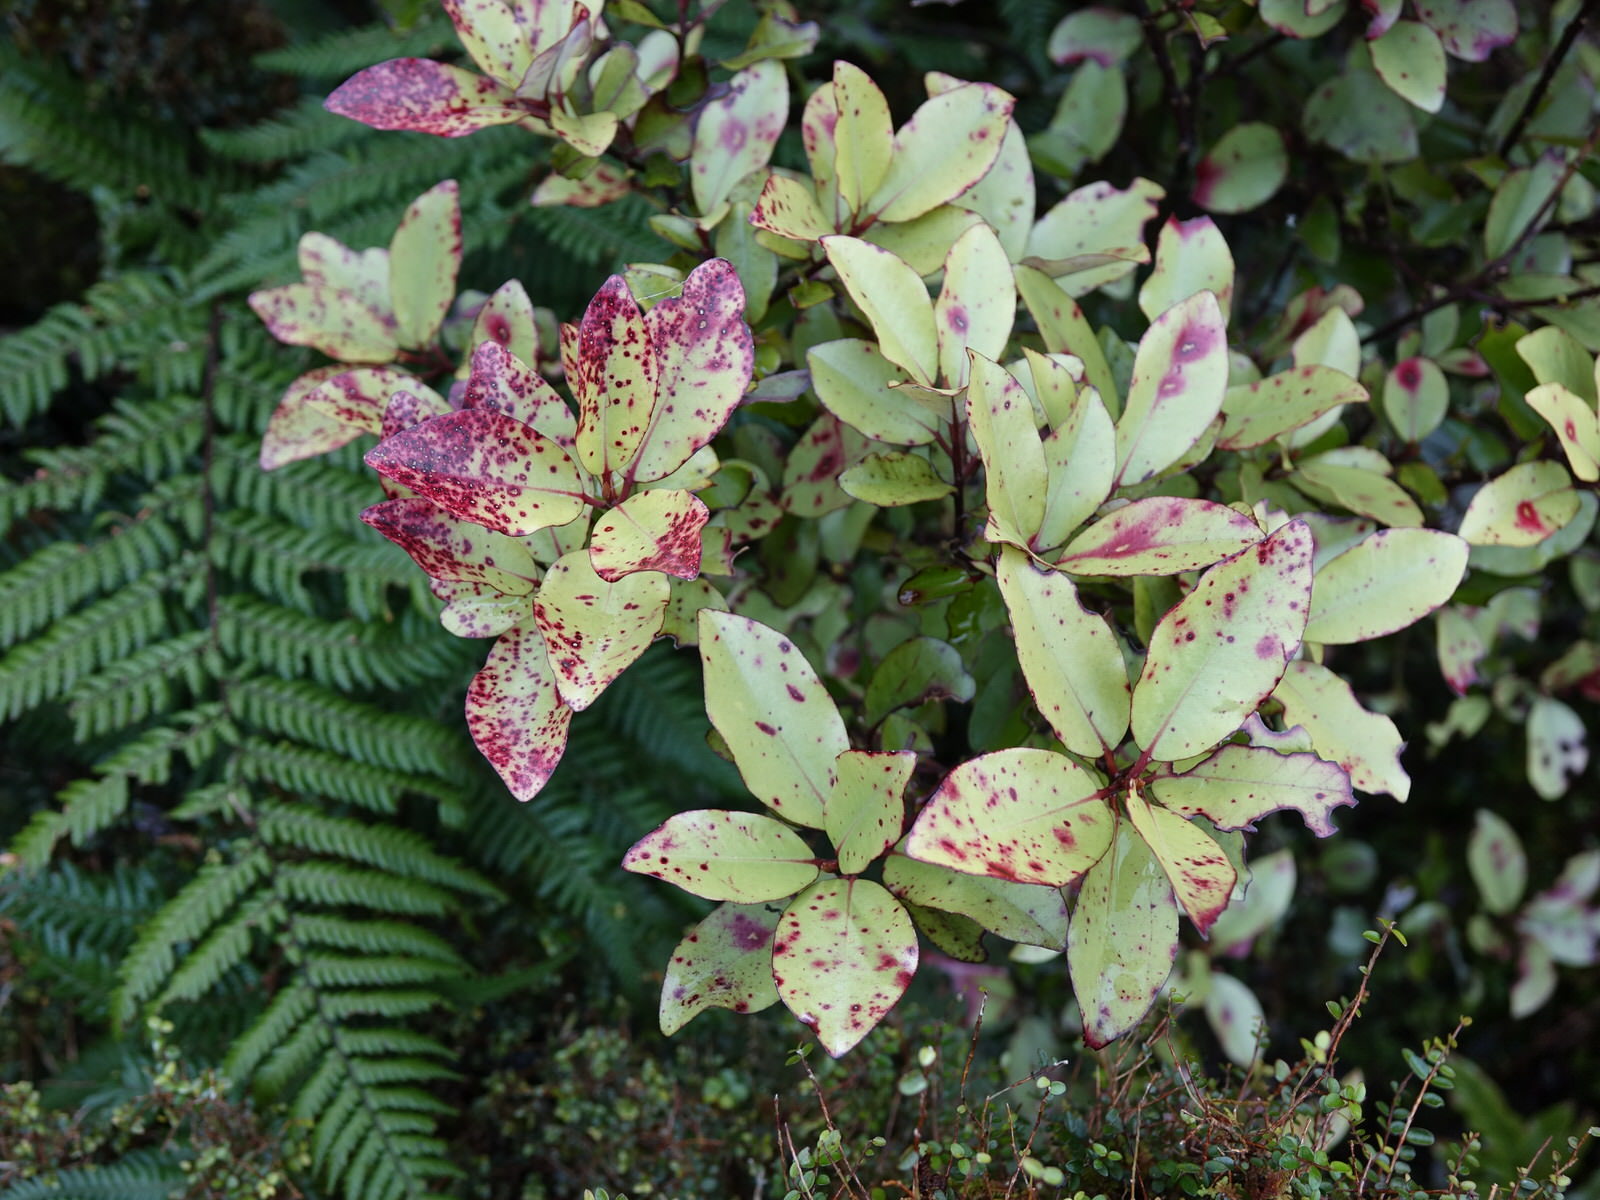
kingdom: Plantae
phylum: Tracheophyta
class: Magnoliopsida
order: Canellales
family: Winteraceae
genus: Pseudowintera
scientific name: Pseudowintera colorata
